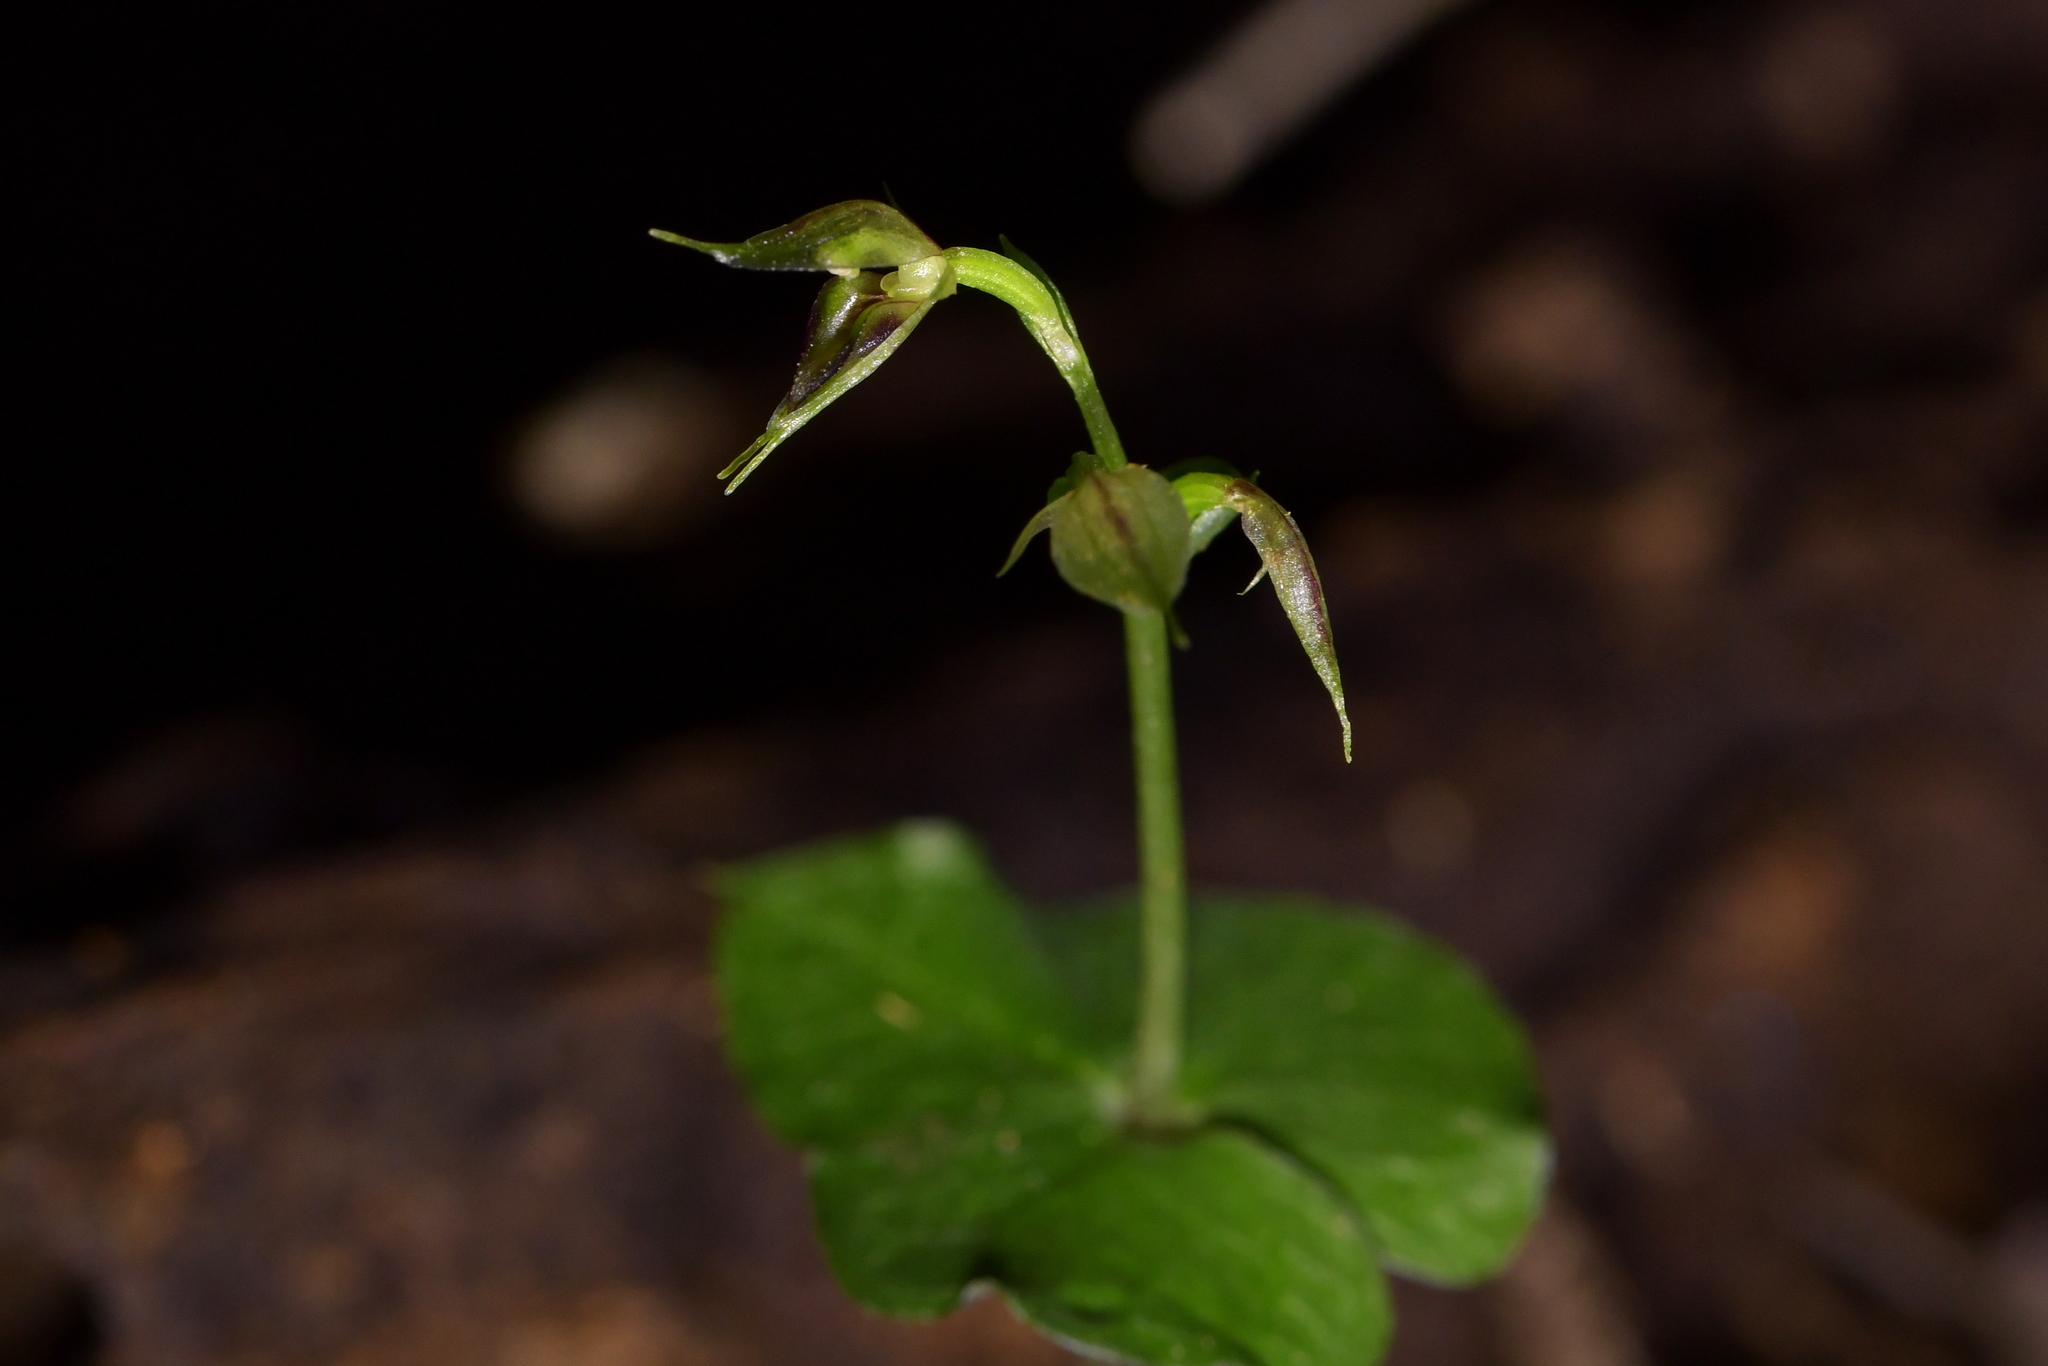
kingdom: Plantae
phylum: Tracheophyta
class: Liliopsida
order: Asparagales
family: Orchidaceae
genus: Acianthus
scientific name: Acianthus sinclairii
